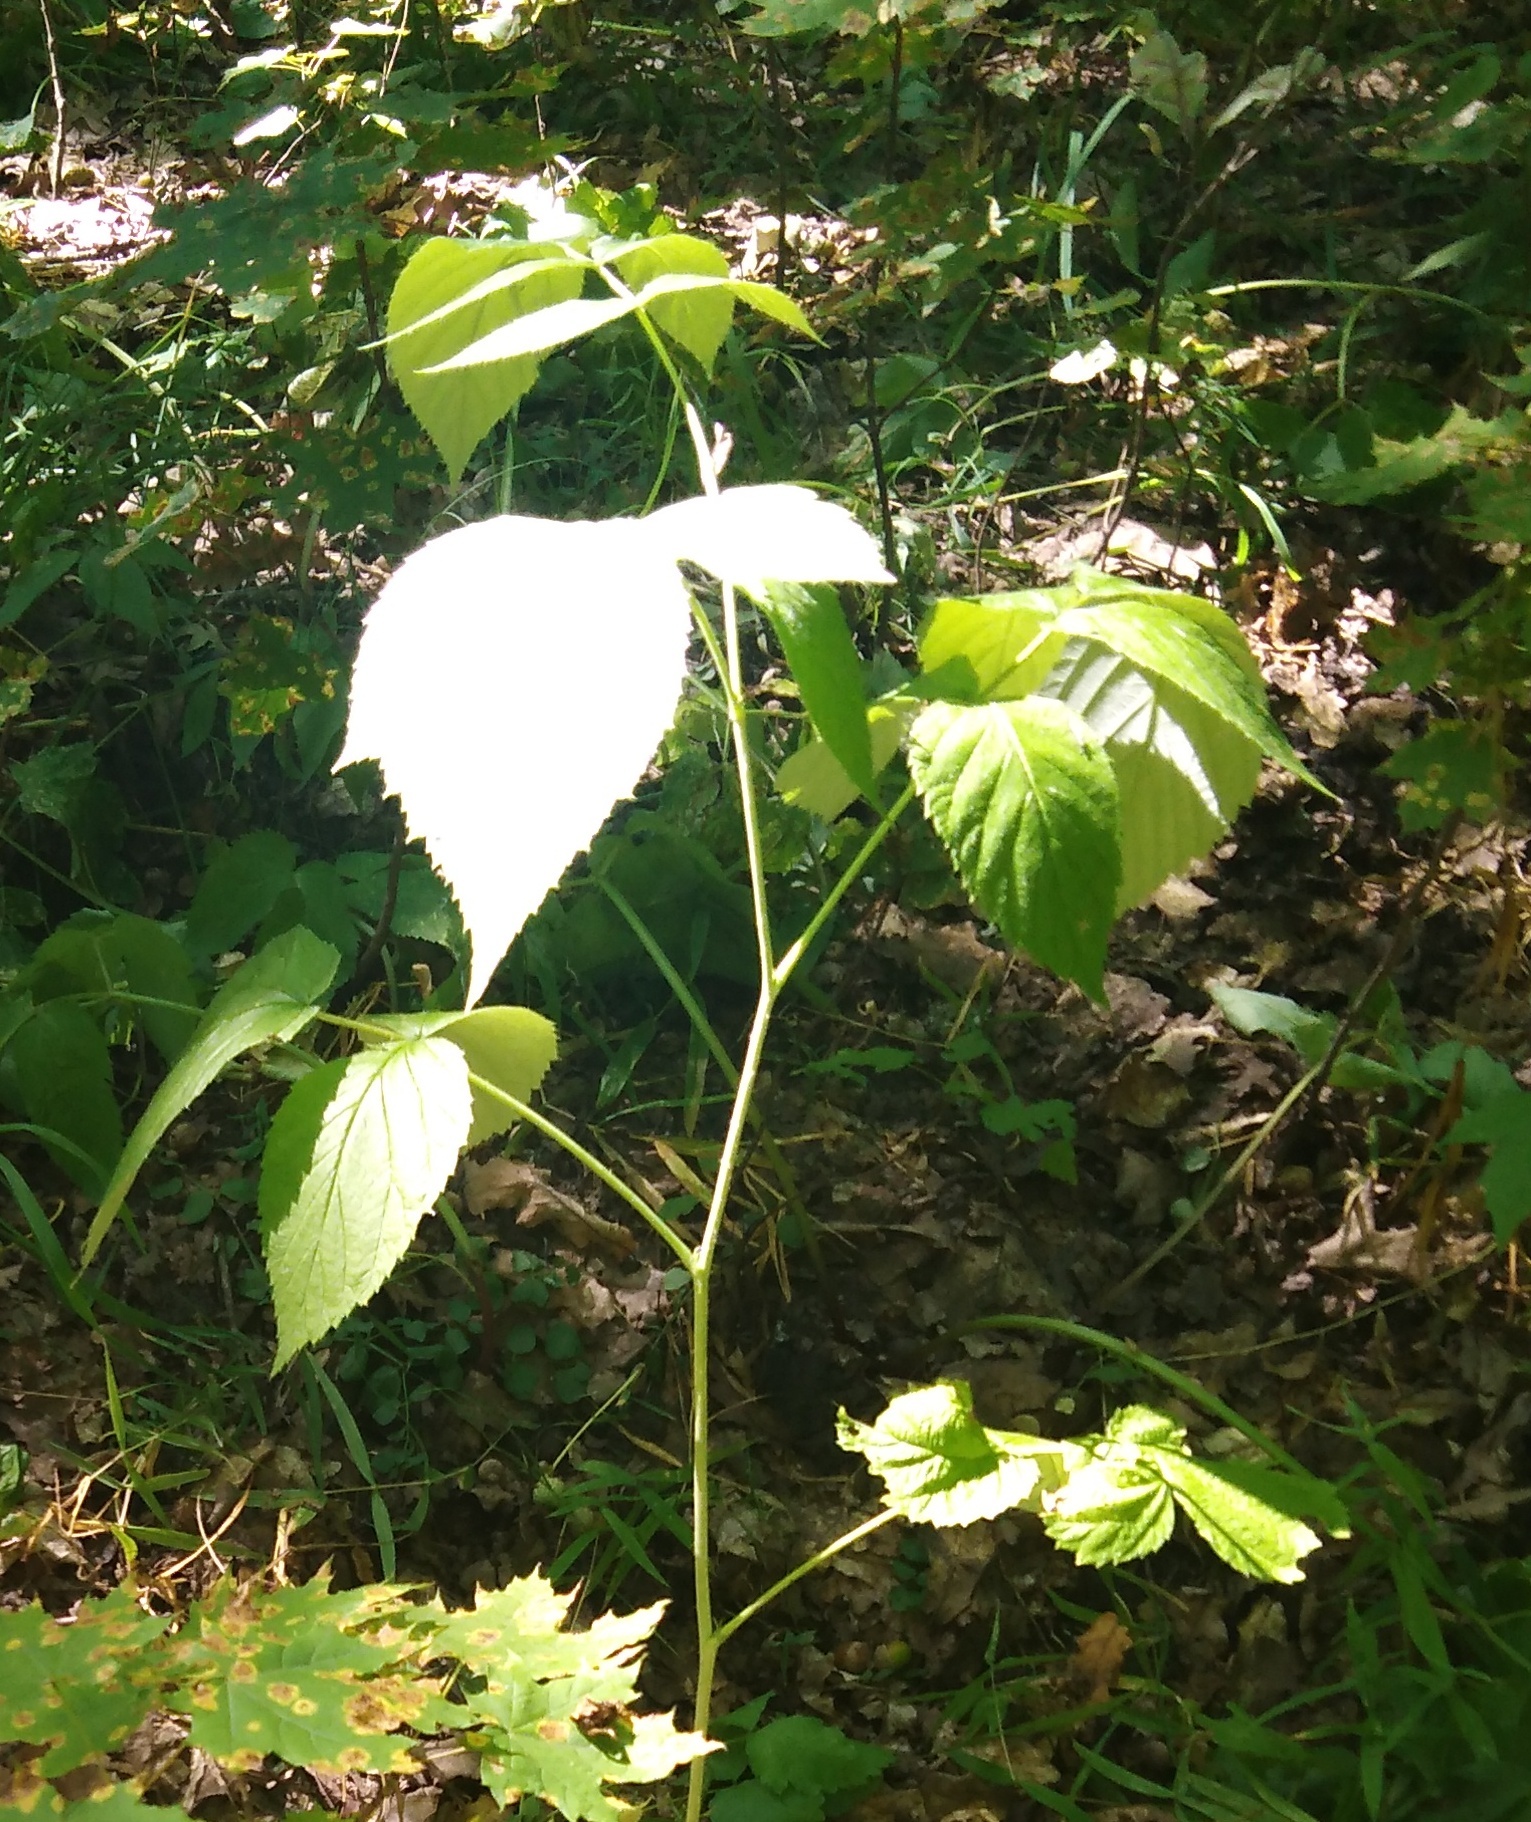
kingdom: Plantae
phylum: Tracheophyta
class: Magnoliopsida
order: Rosales
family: Rosaceae
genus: Rubus
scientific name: Rubus idaeus
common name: Raspberry
